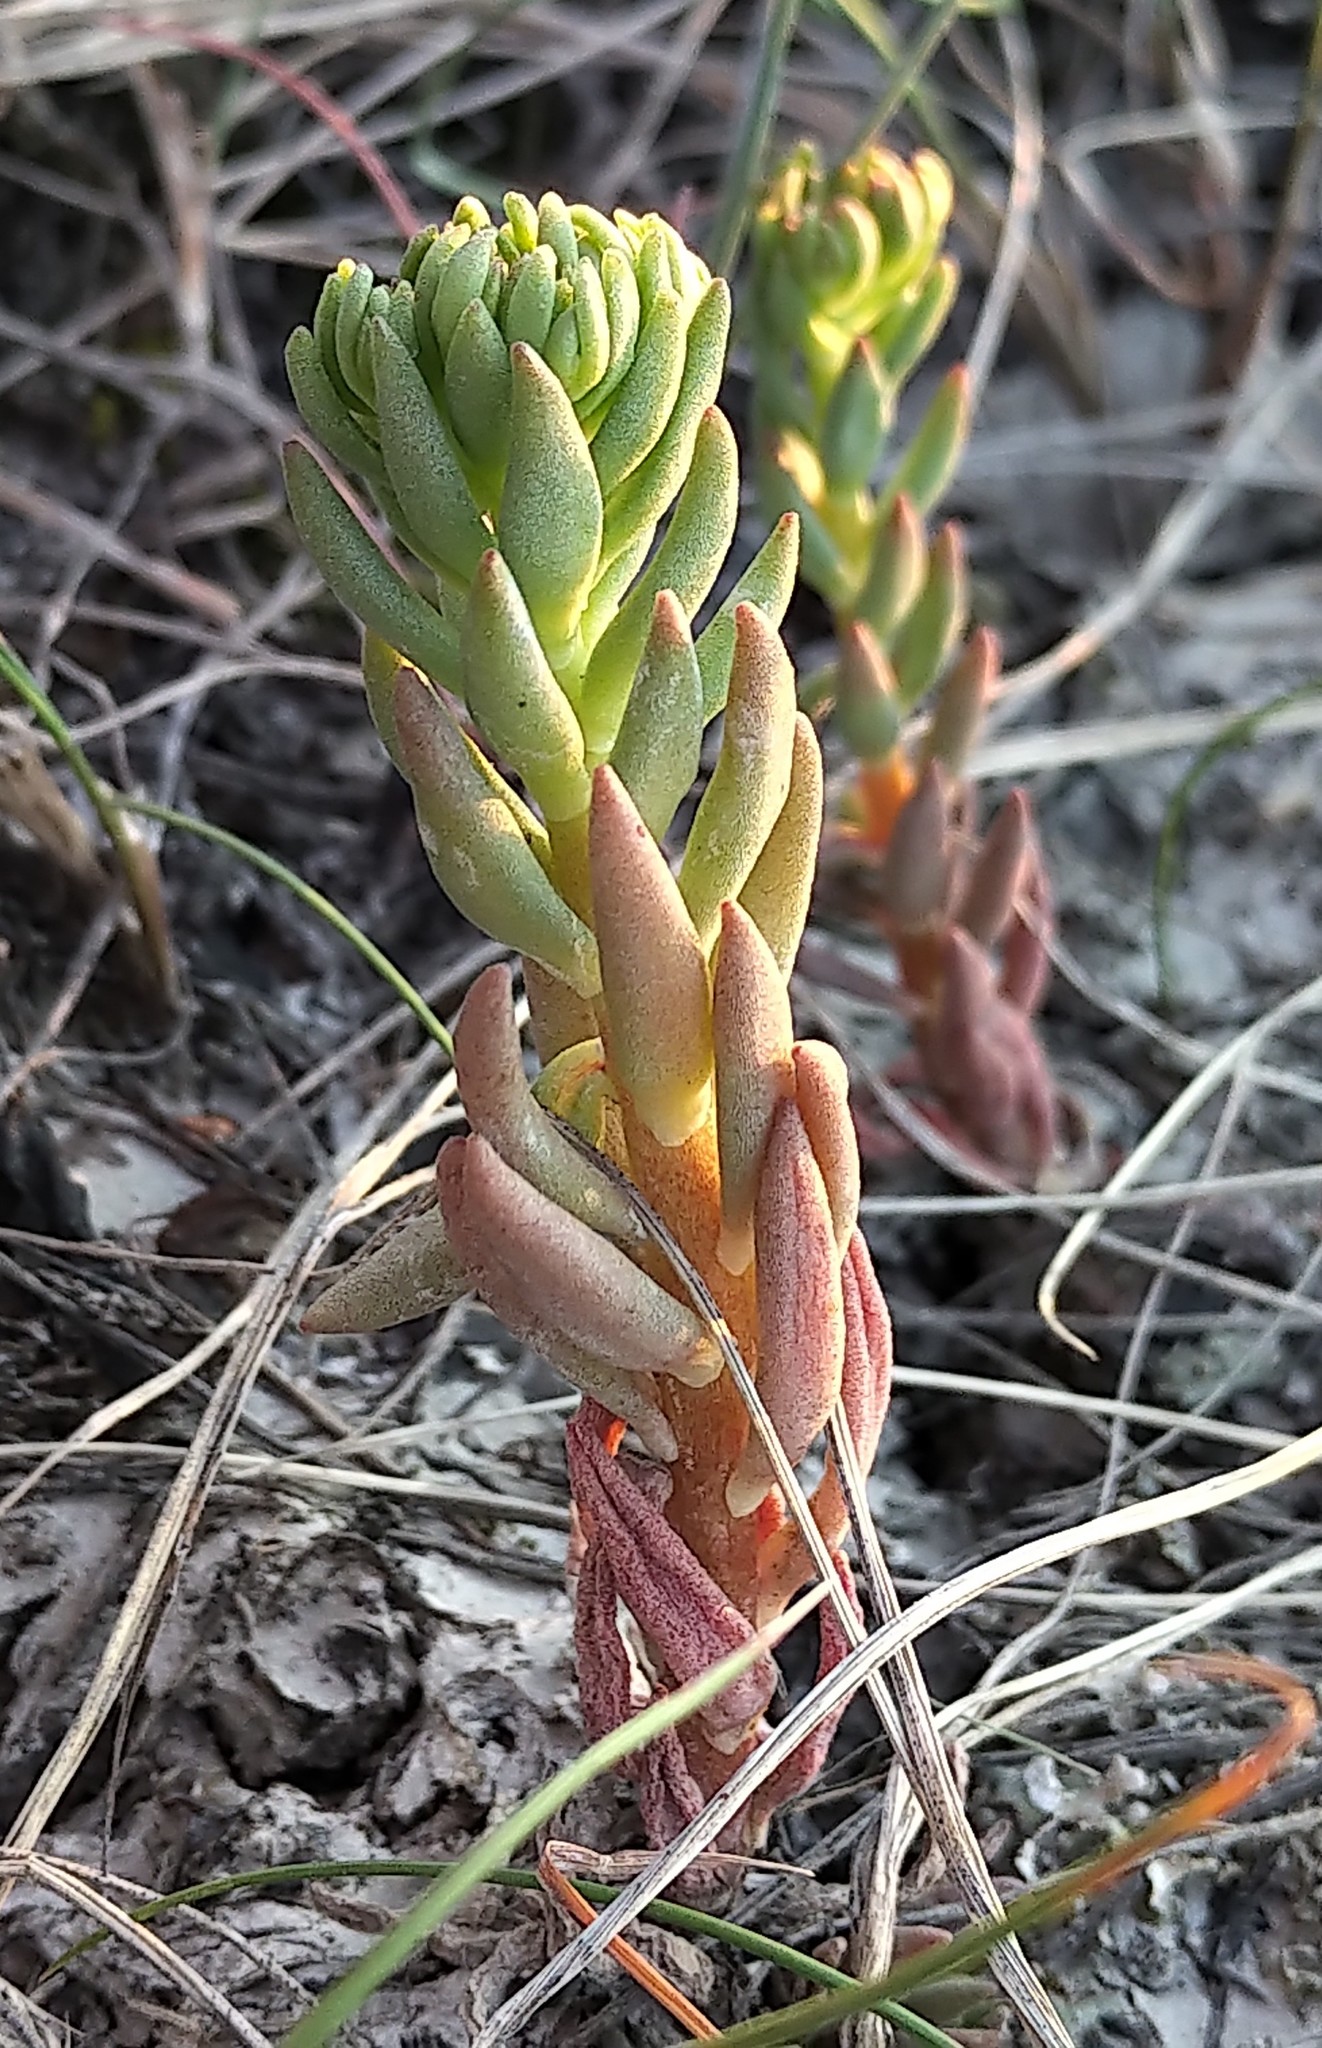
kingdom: Plantae
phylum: Tracheophyta
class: Magnoliopsida
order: Saxifragales
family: Crassulaceae
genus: Sedum
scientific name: Sedum lanceolatum
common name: Common stonecrop
